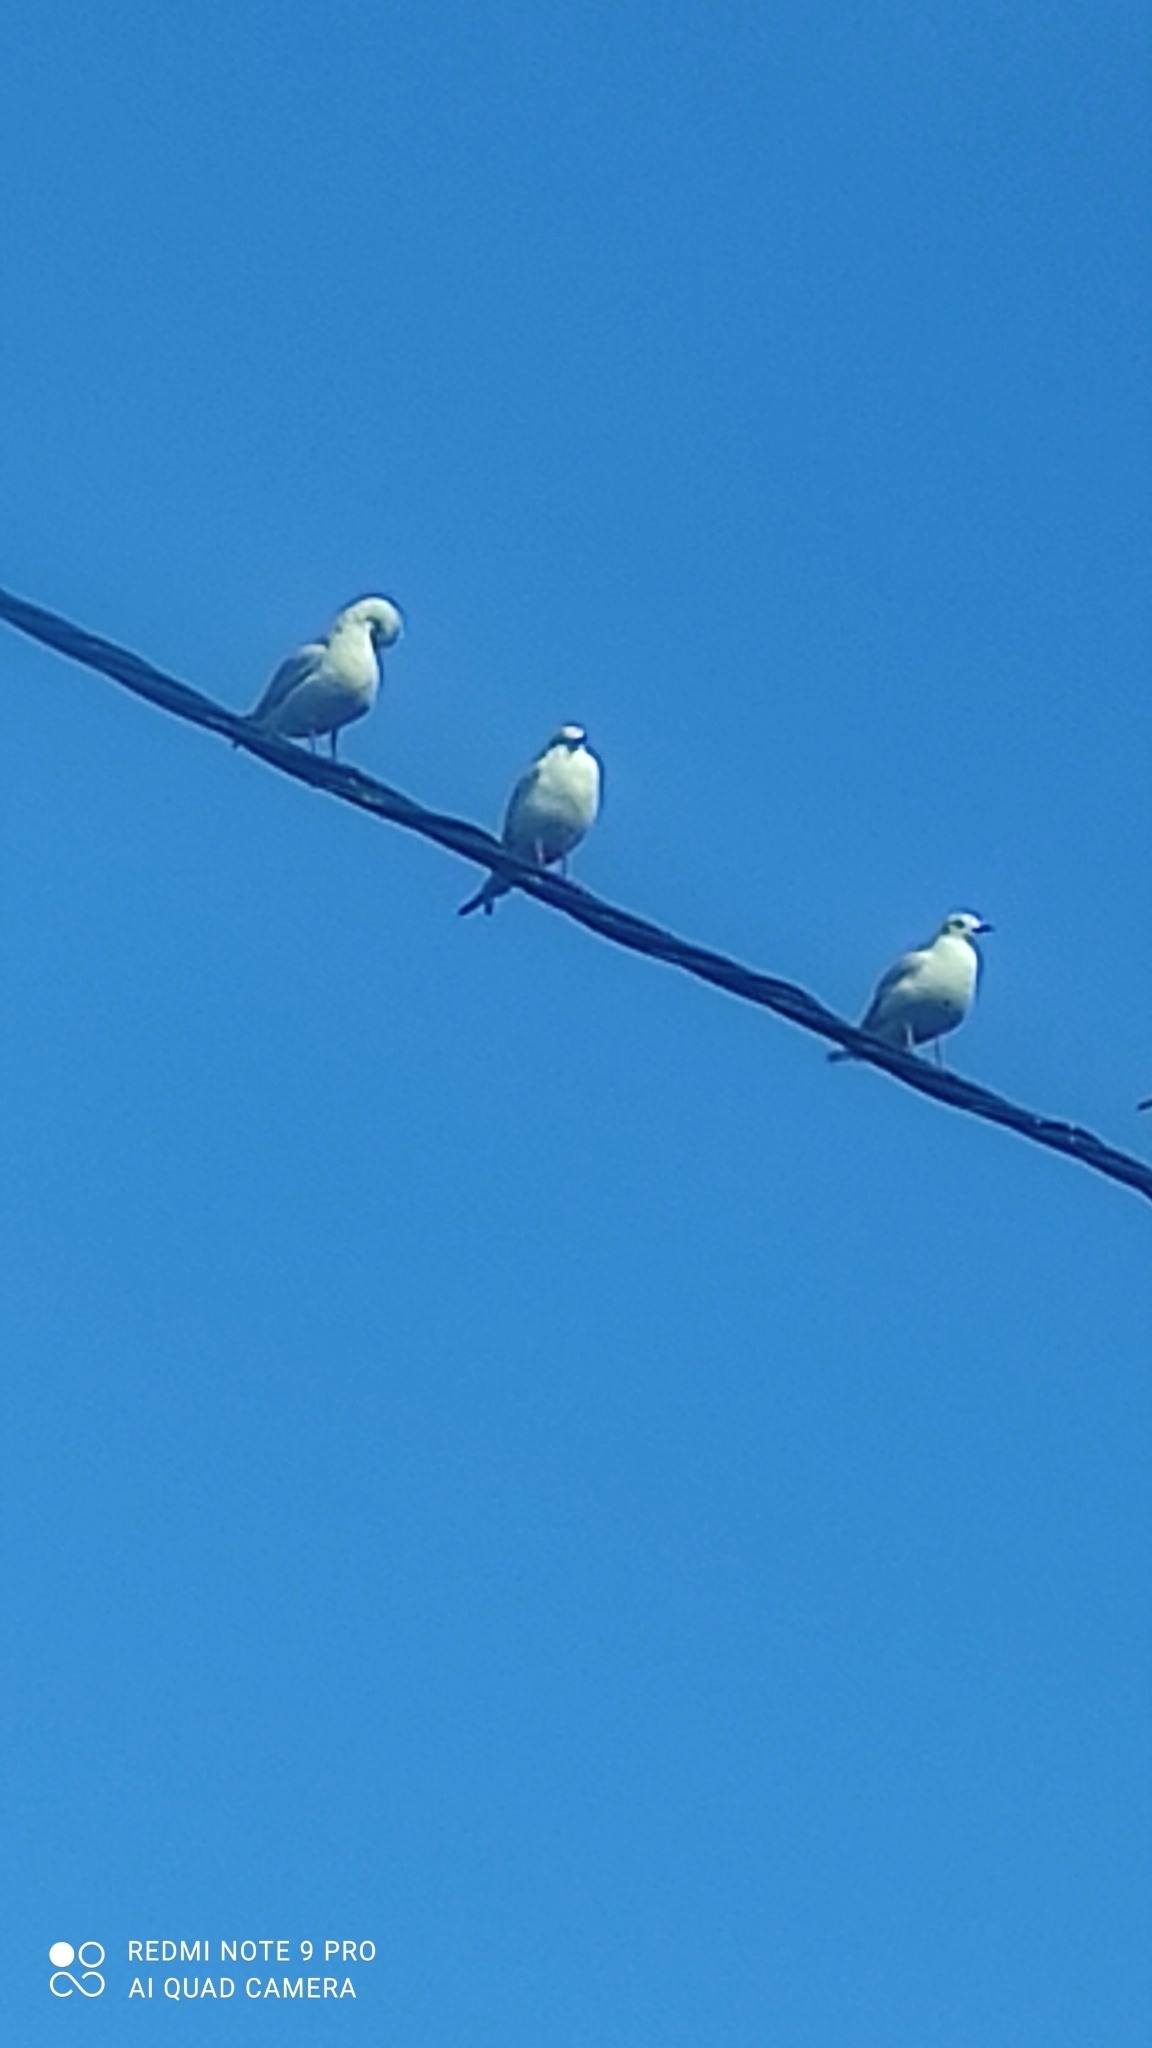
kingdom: Animalia
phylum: Chordata
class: Aves
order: Charadriiformes
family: Laridae
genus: Chroicocephalus
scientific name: Chroicocephalus ridibundus
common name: Black-headed gull
